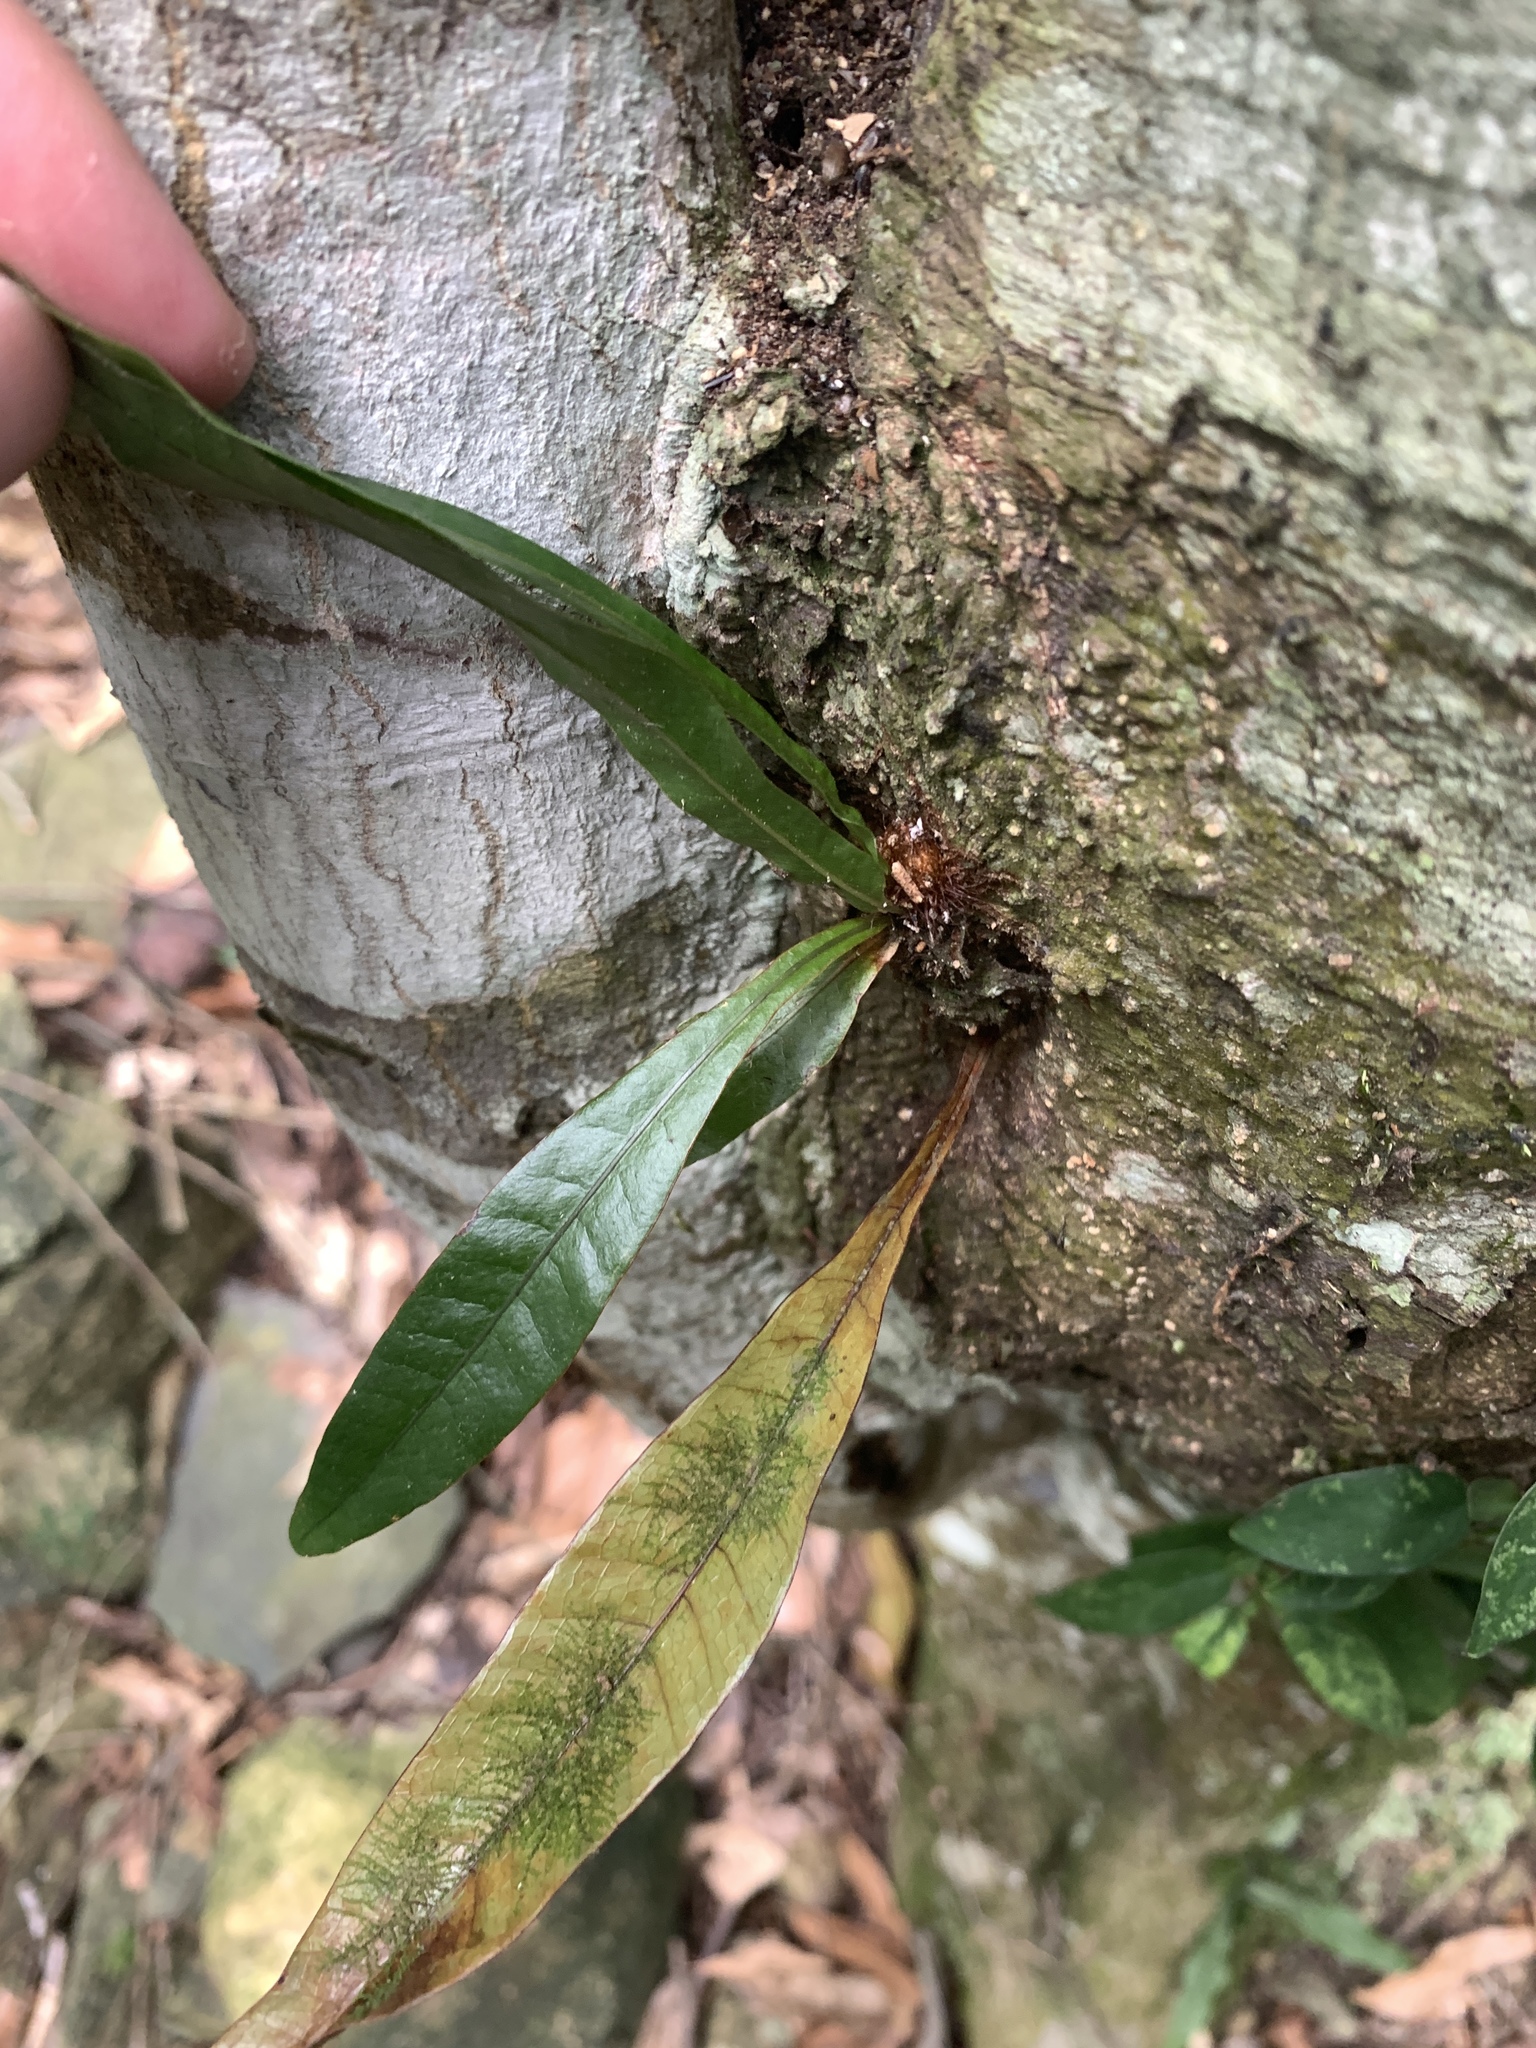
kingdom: Plantae
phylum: Tracheophyta
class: Polypodiopsida
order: Polypodiales
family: Polypodiaceae
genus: Drynaria
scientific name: Drynaria coronans
